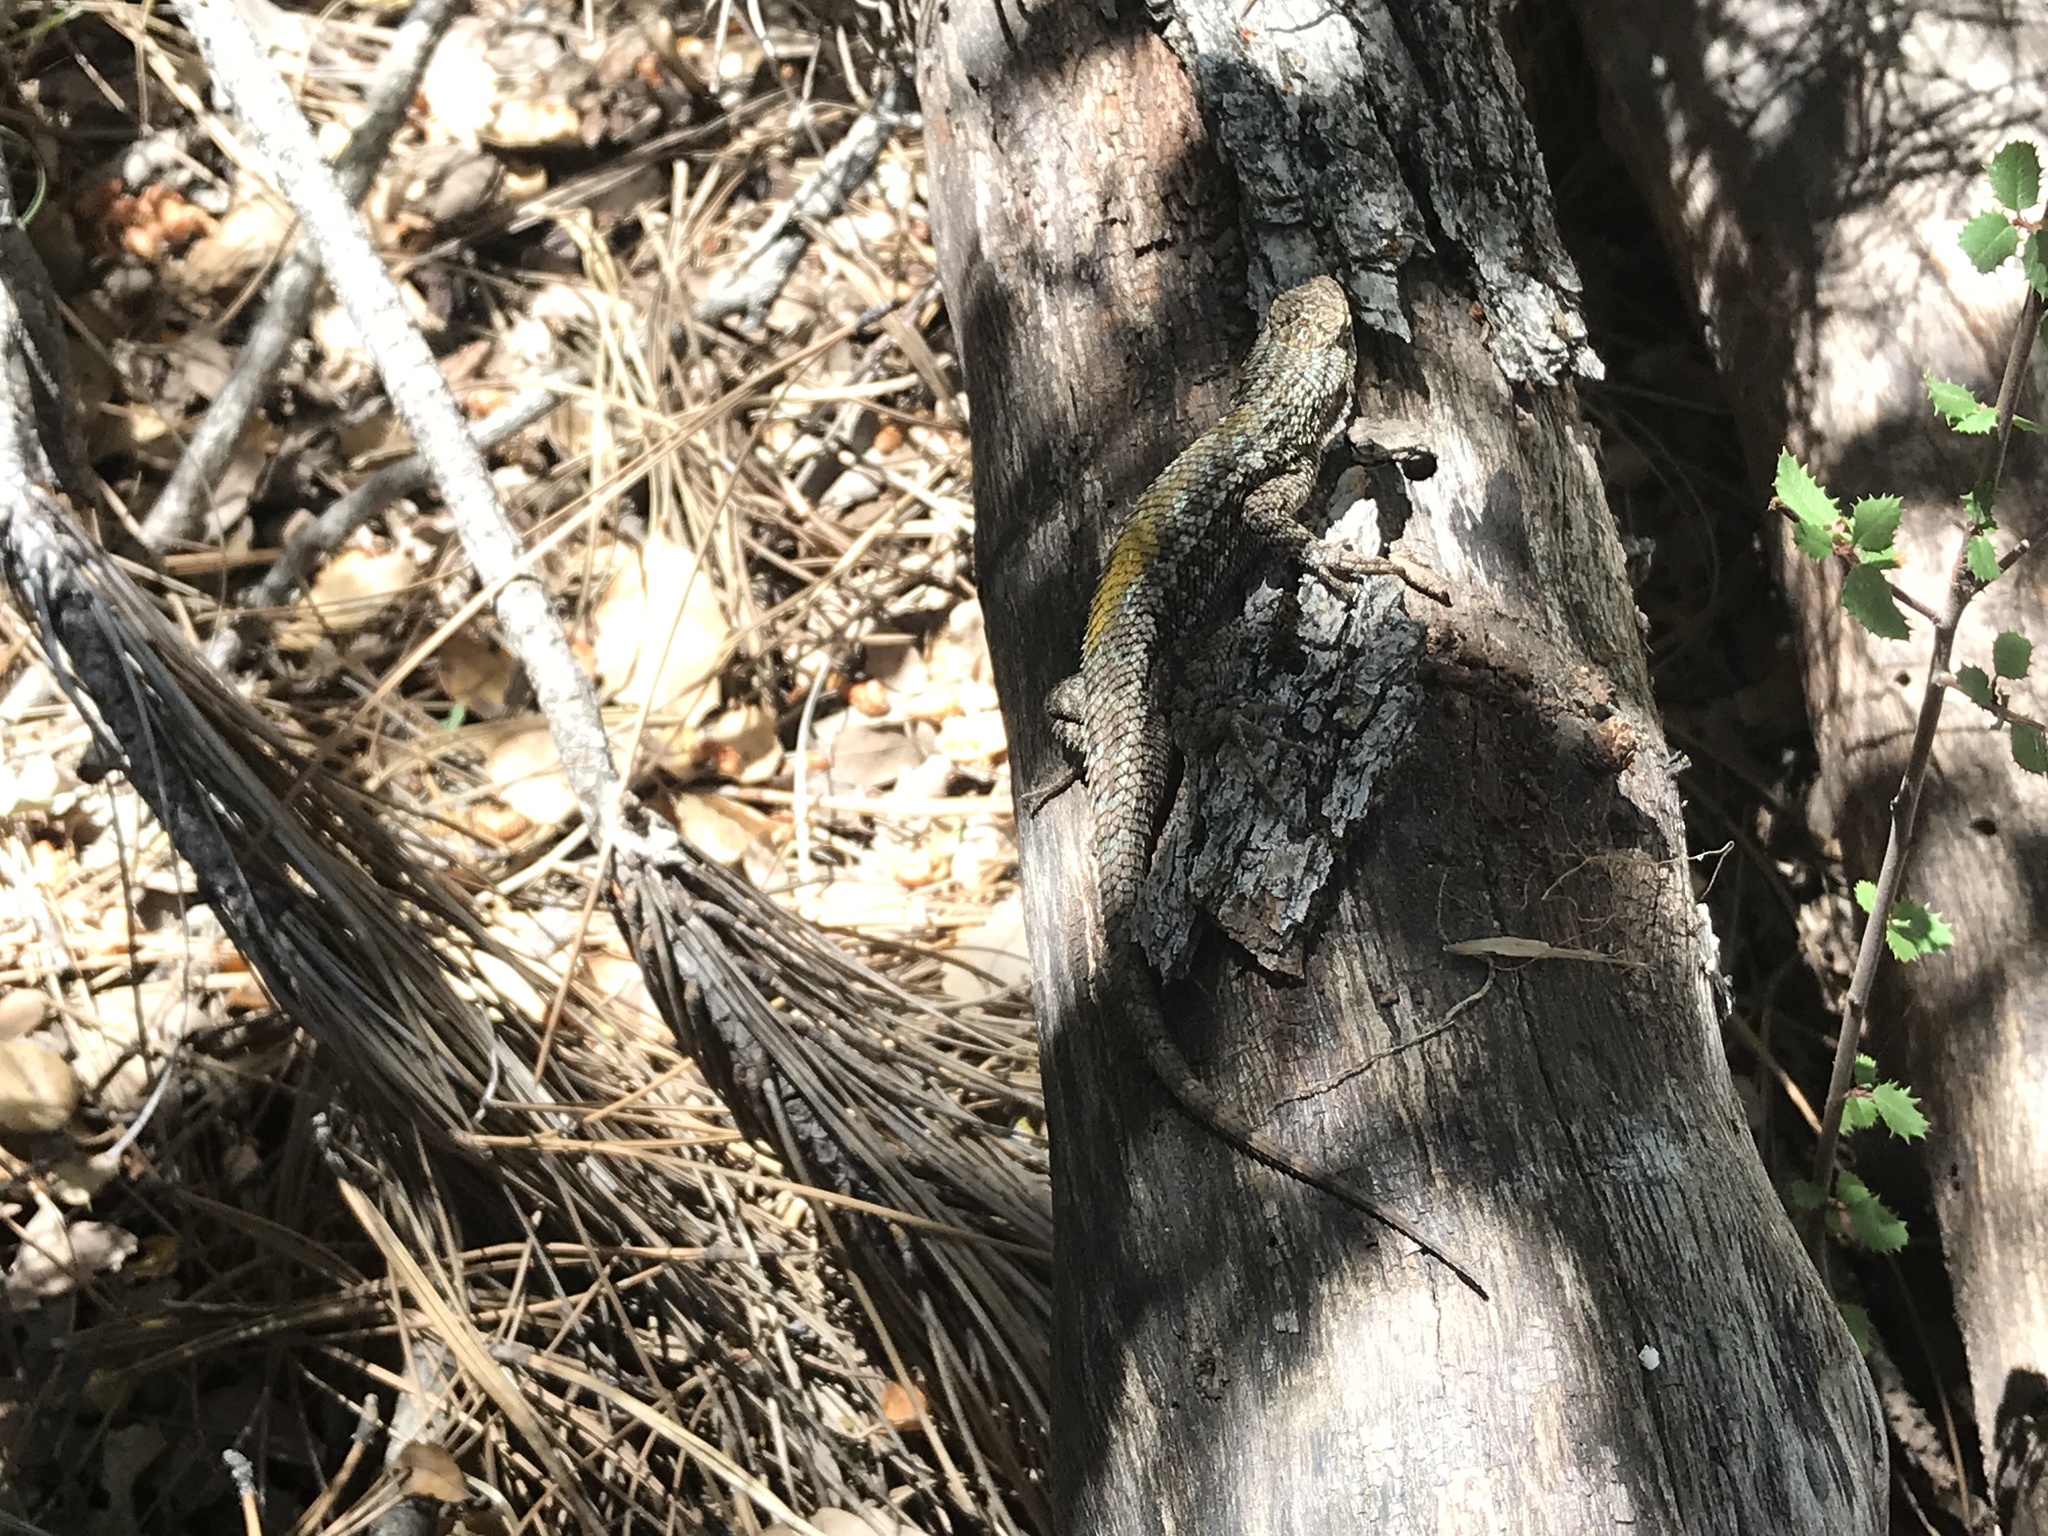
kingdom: Animalia
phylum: Chordata
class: Squamata
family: Phrynosomatidae
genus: Sceloporus
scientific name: Sceloporus occidentalis
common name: Western fence lizard
